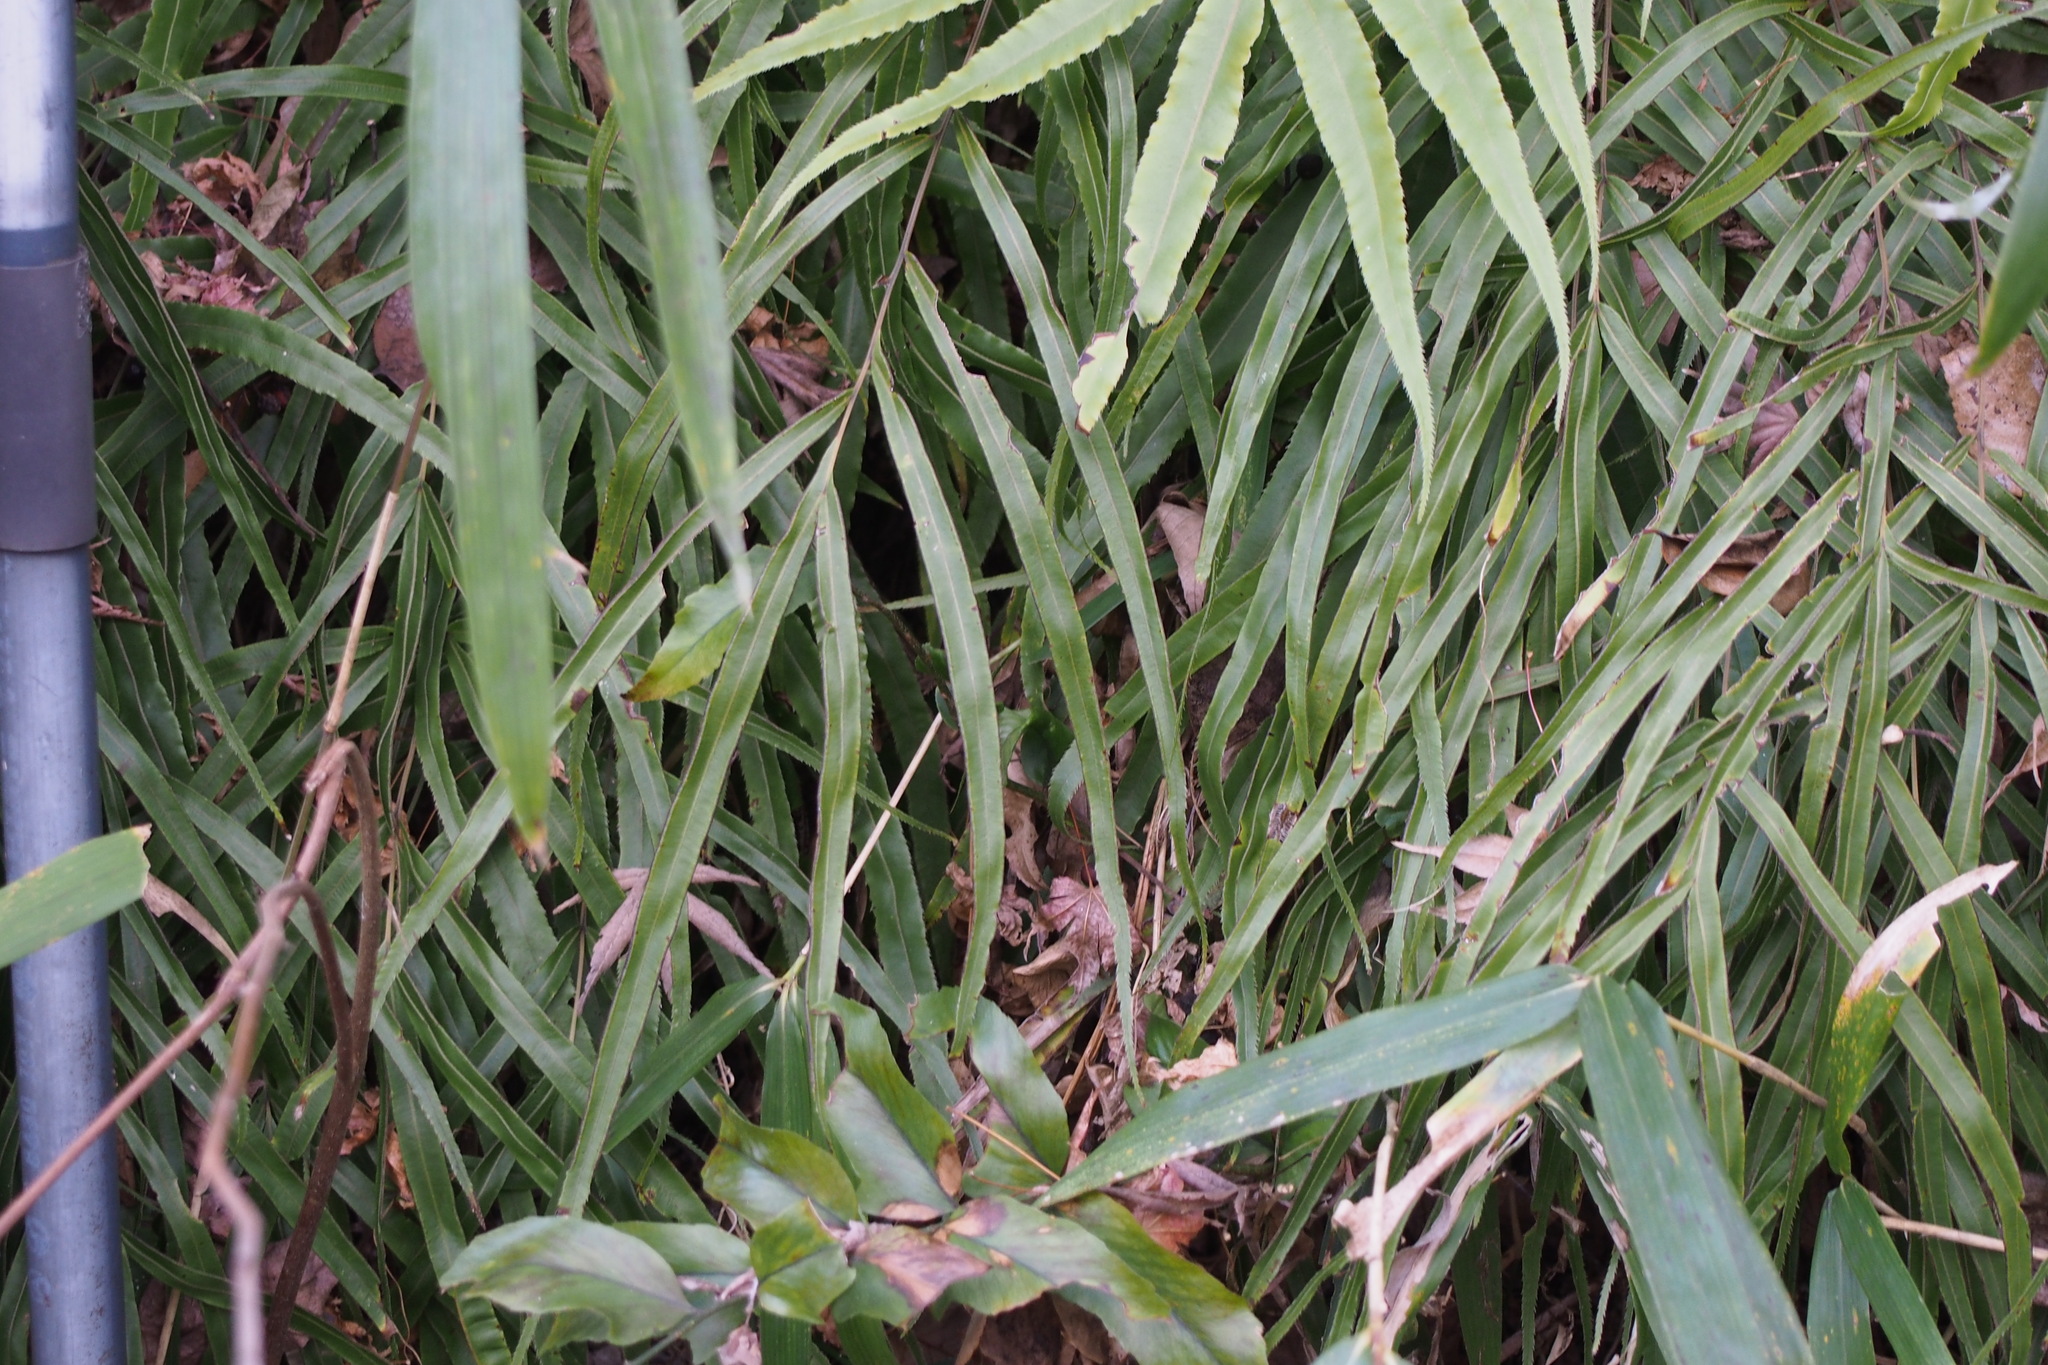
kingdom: Plantae
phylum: Tracheophyta
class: Polypodiopsida
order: Polypodiales
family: Pteridaceae
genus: Pteris
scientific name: Pteris cretica
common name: Ribbon fern
